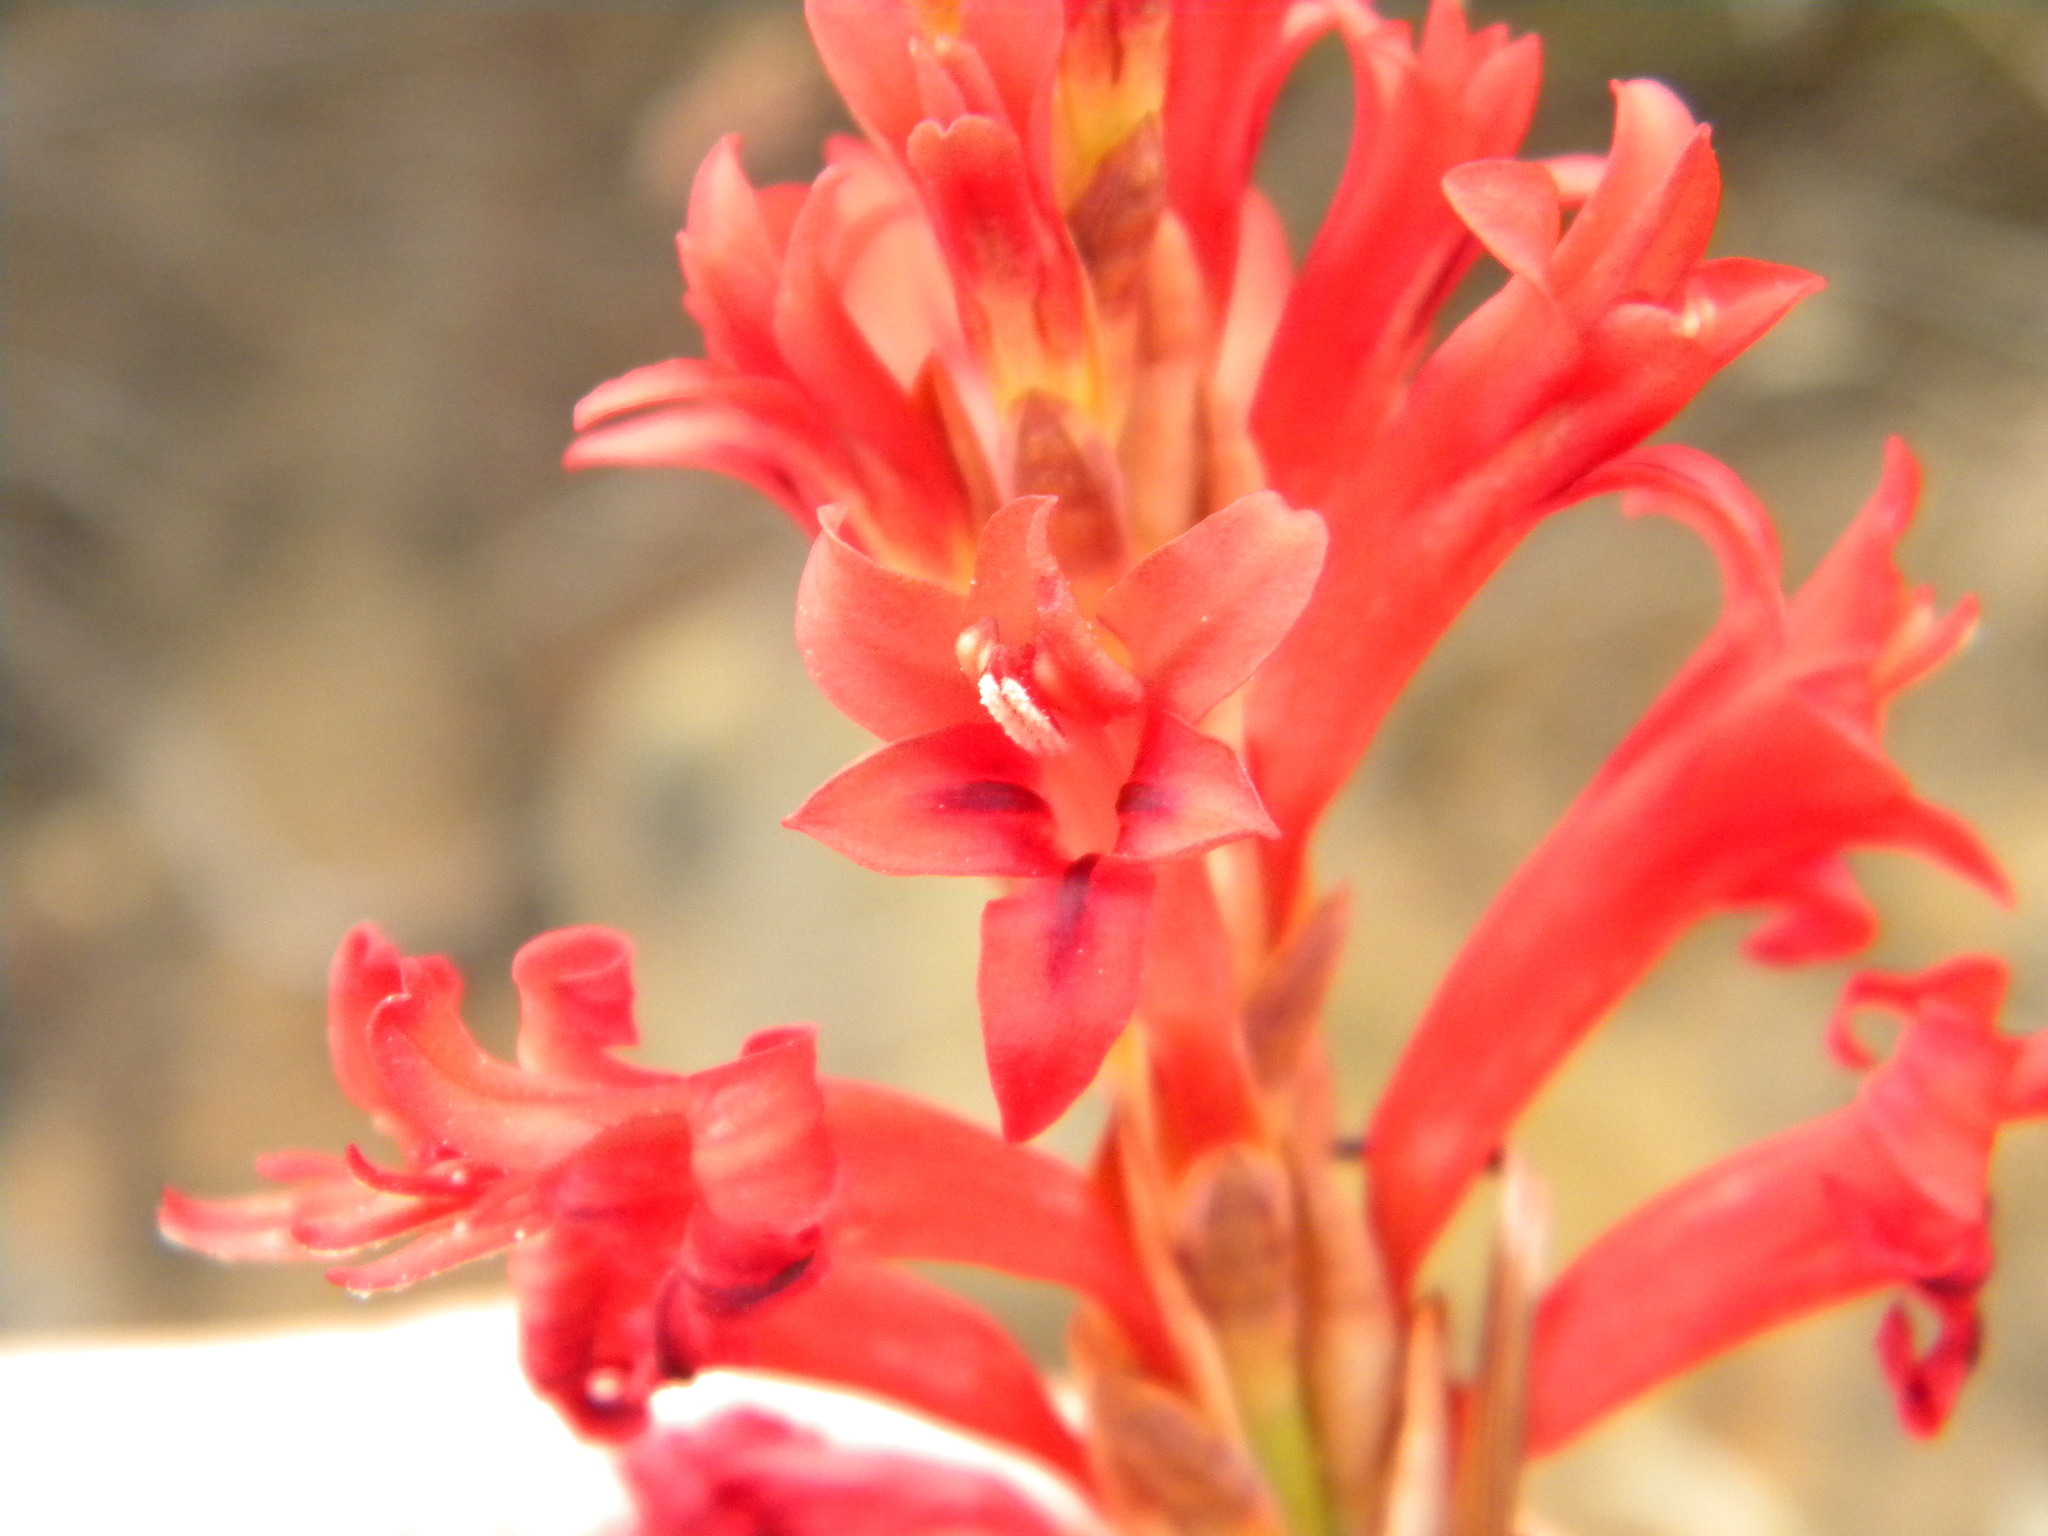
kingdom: Plantae
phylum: Tracheophyta
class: Liliopsida
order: Asparagales
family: Iridaceae
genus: Tritoniopsis
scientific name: Tritoniopsis triticea
